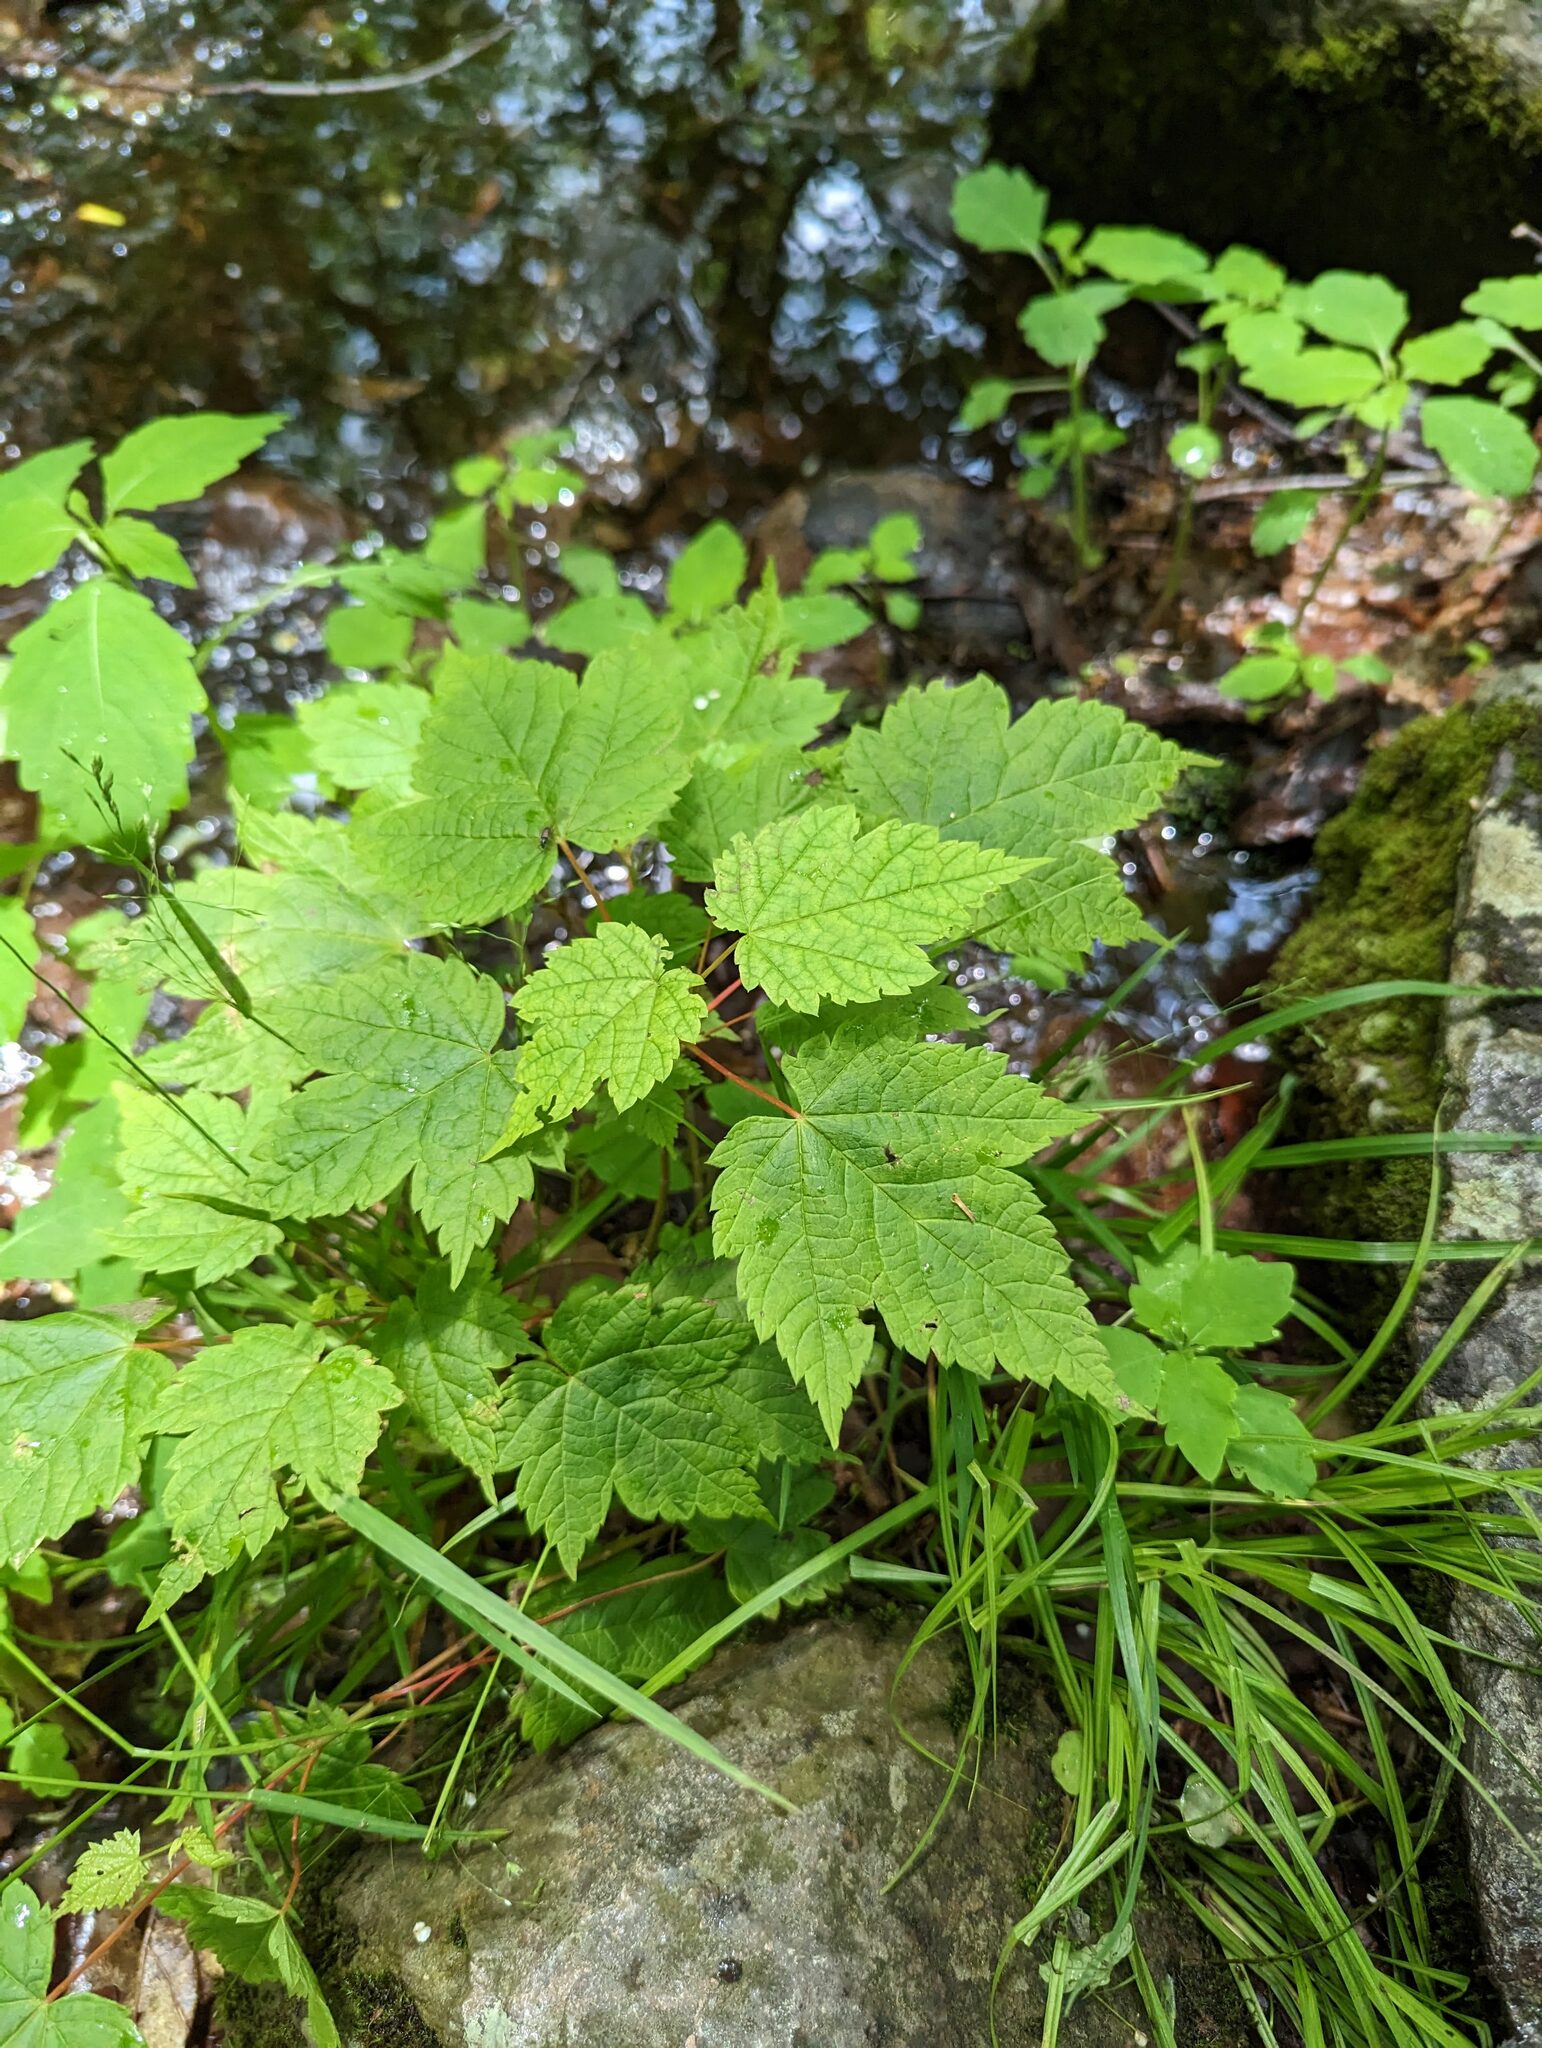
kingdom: Plantae
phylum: Tracheophyta
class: Magnoliopsida
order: Sapindales
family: Sapindaceae
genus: Acer
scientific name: Acer spicatum
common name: Mountain maple
